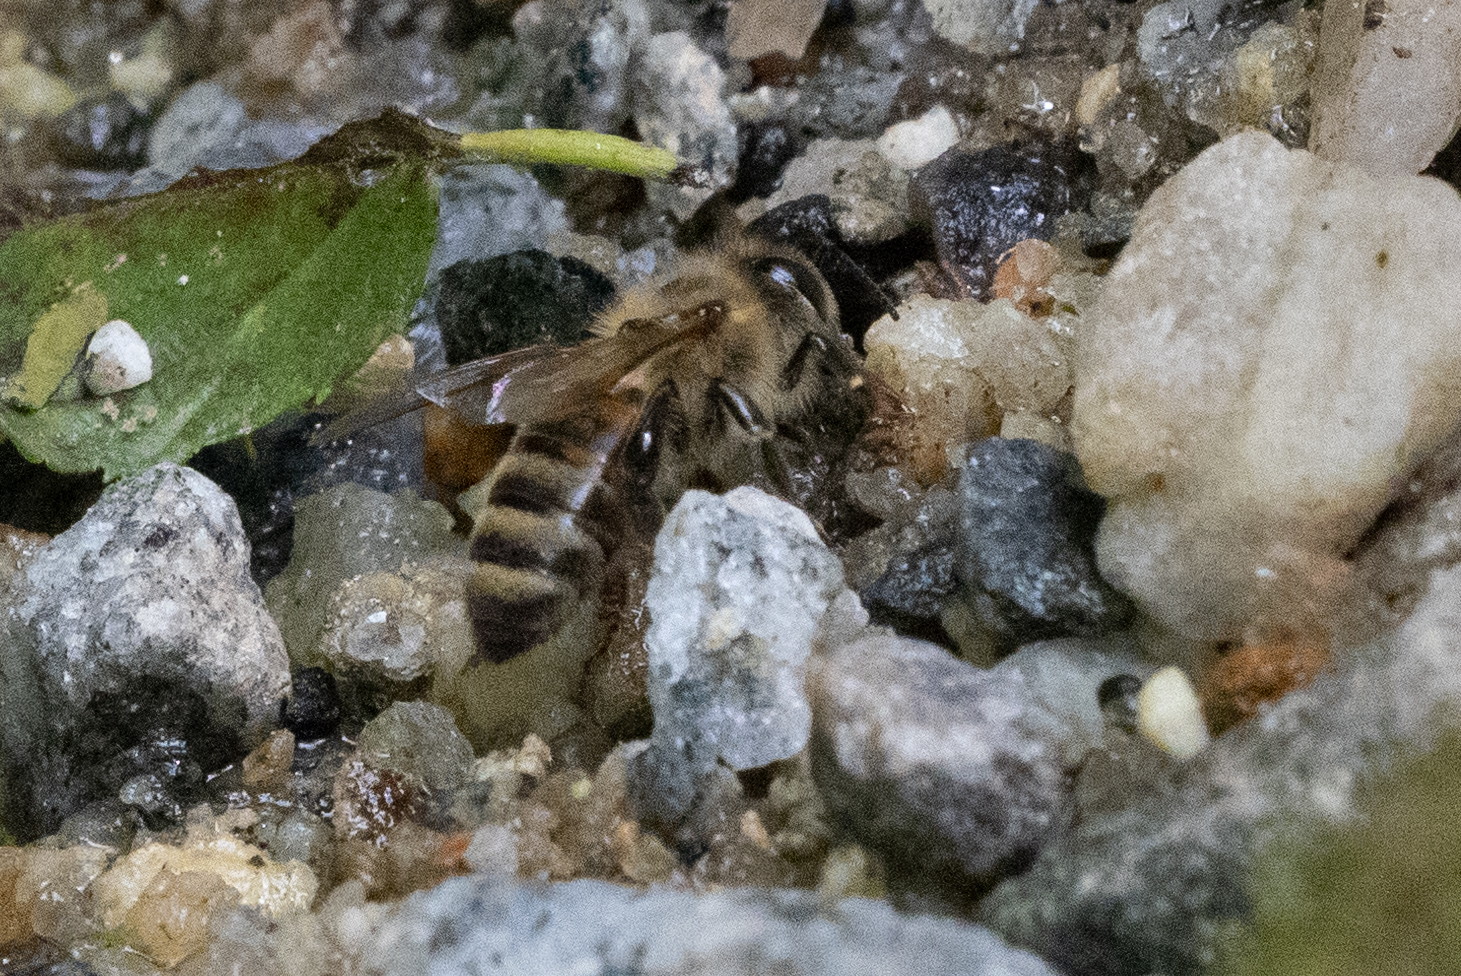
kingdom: Animalia
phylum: Arthropoda
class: Insecta
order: Hymenoptera
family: Apidae
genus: Apis
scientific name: Apis mellifera
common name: Honey bee
